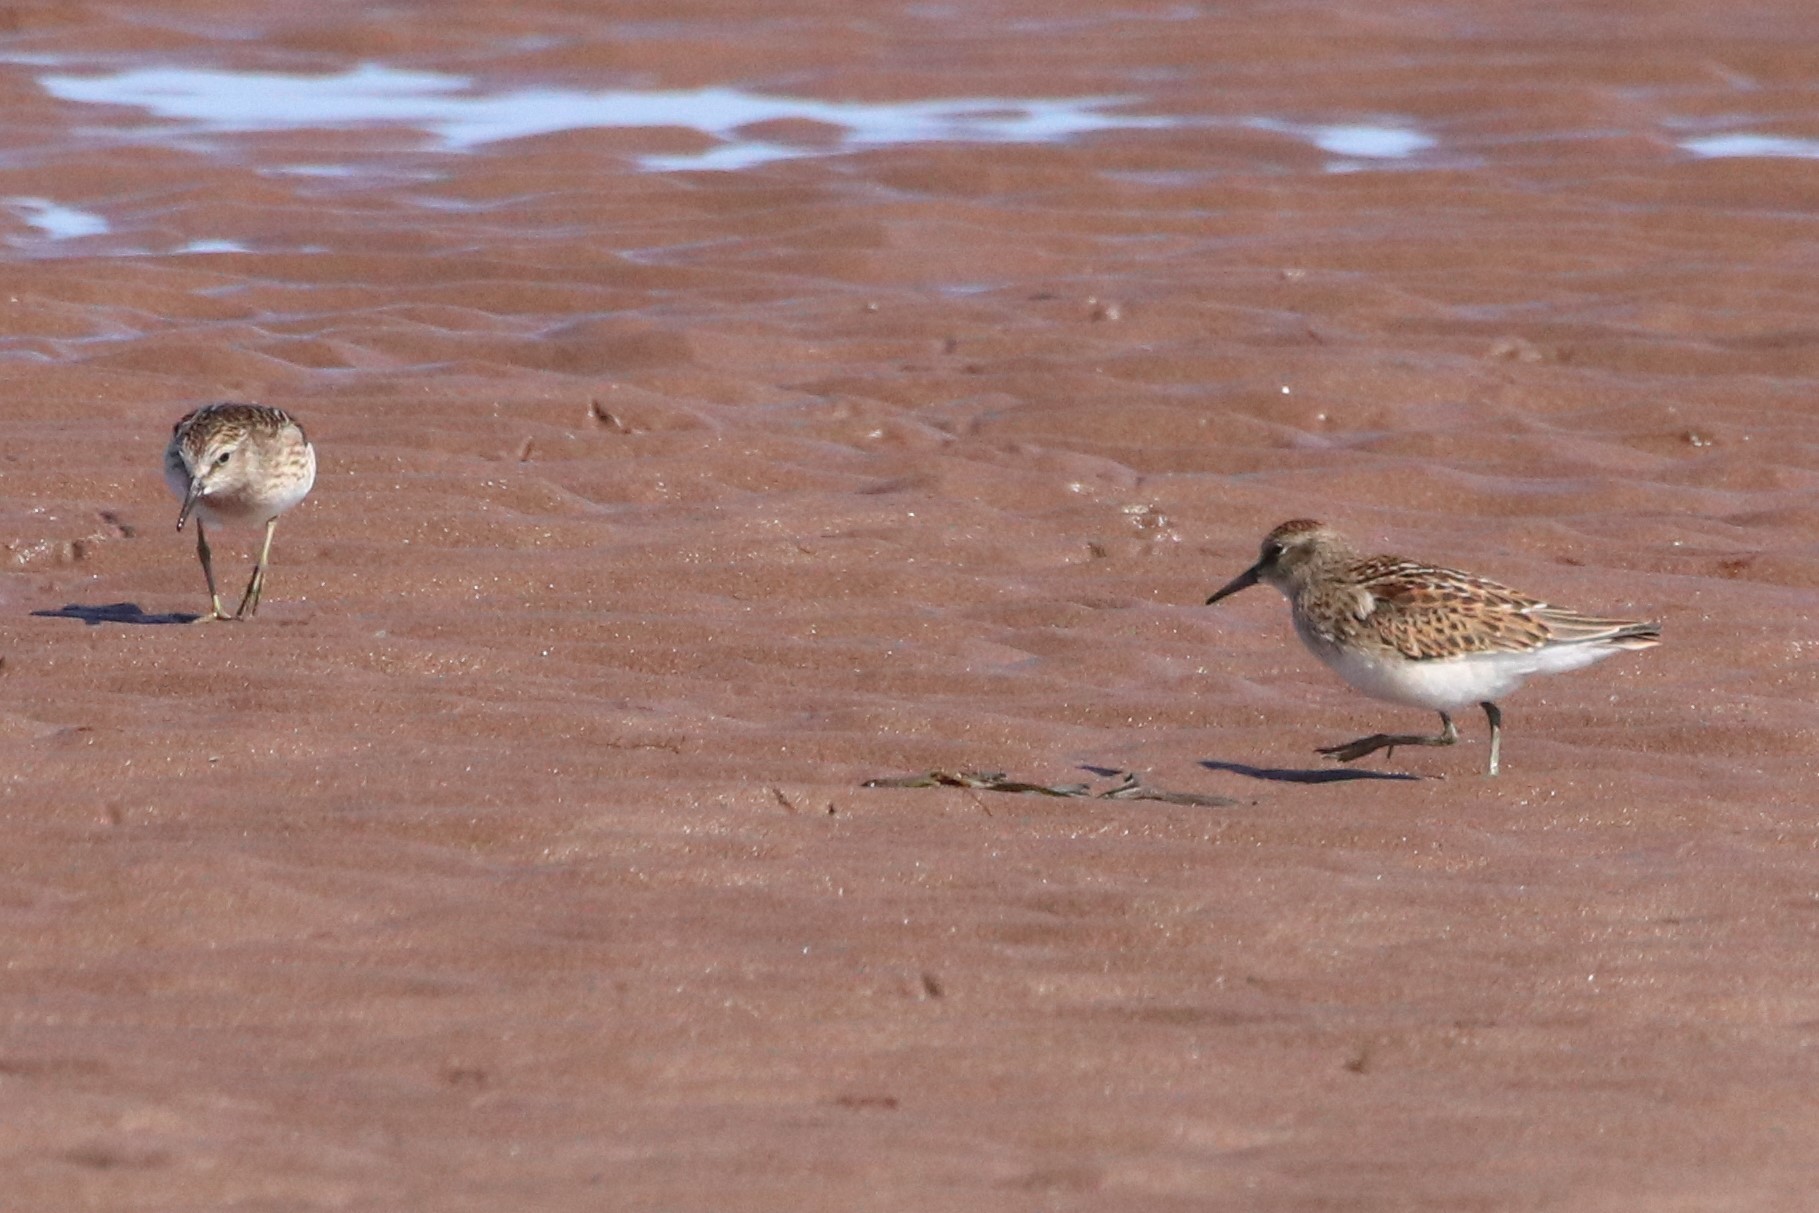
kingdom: Animalia
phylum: Chordata
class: Aves
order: Charadriiformes
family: Scolopacidae
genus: Calidris
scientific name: Calidris minutilla
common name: Least sandpiper
